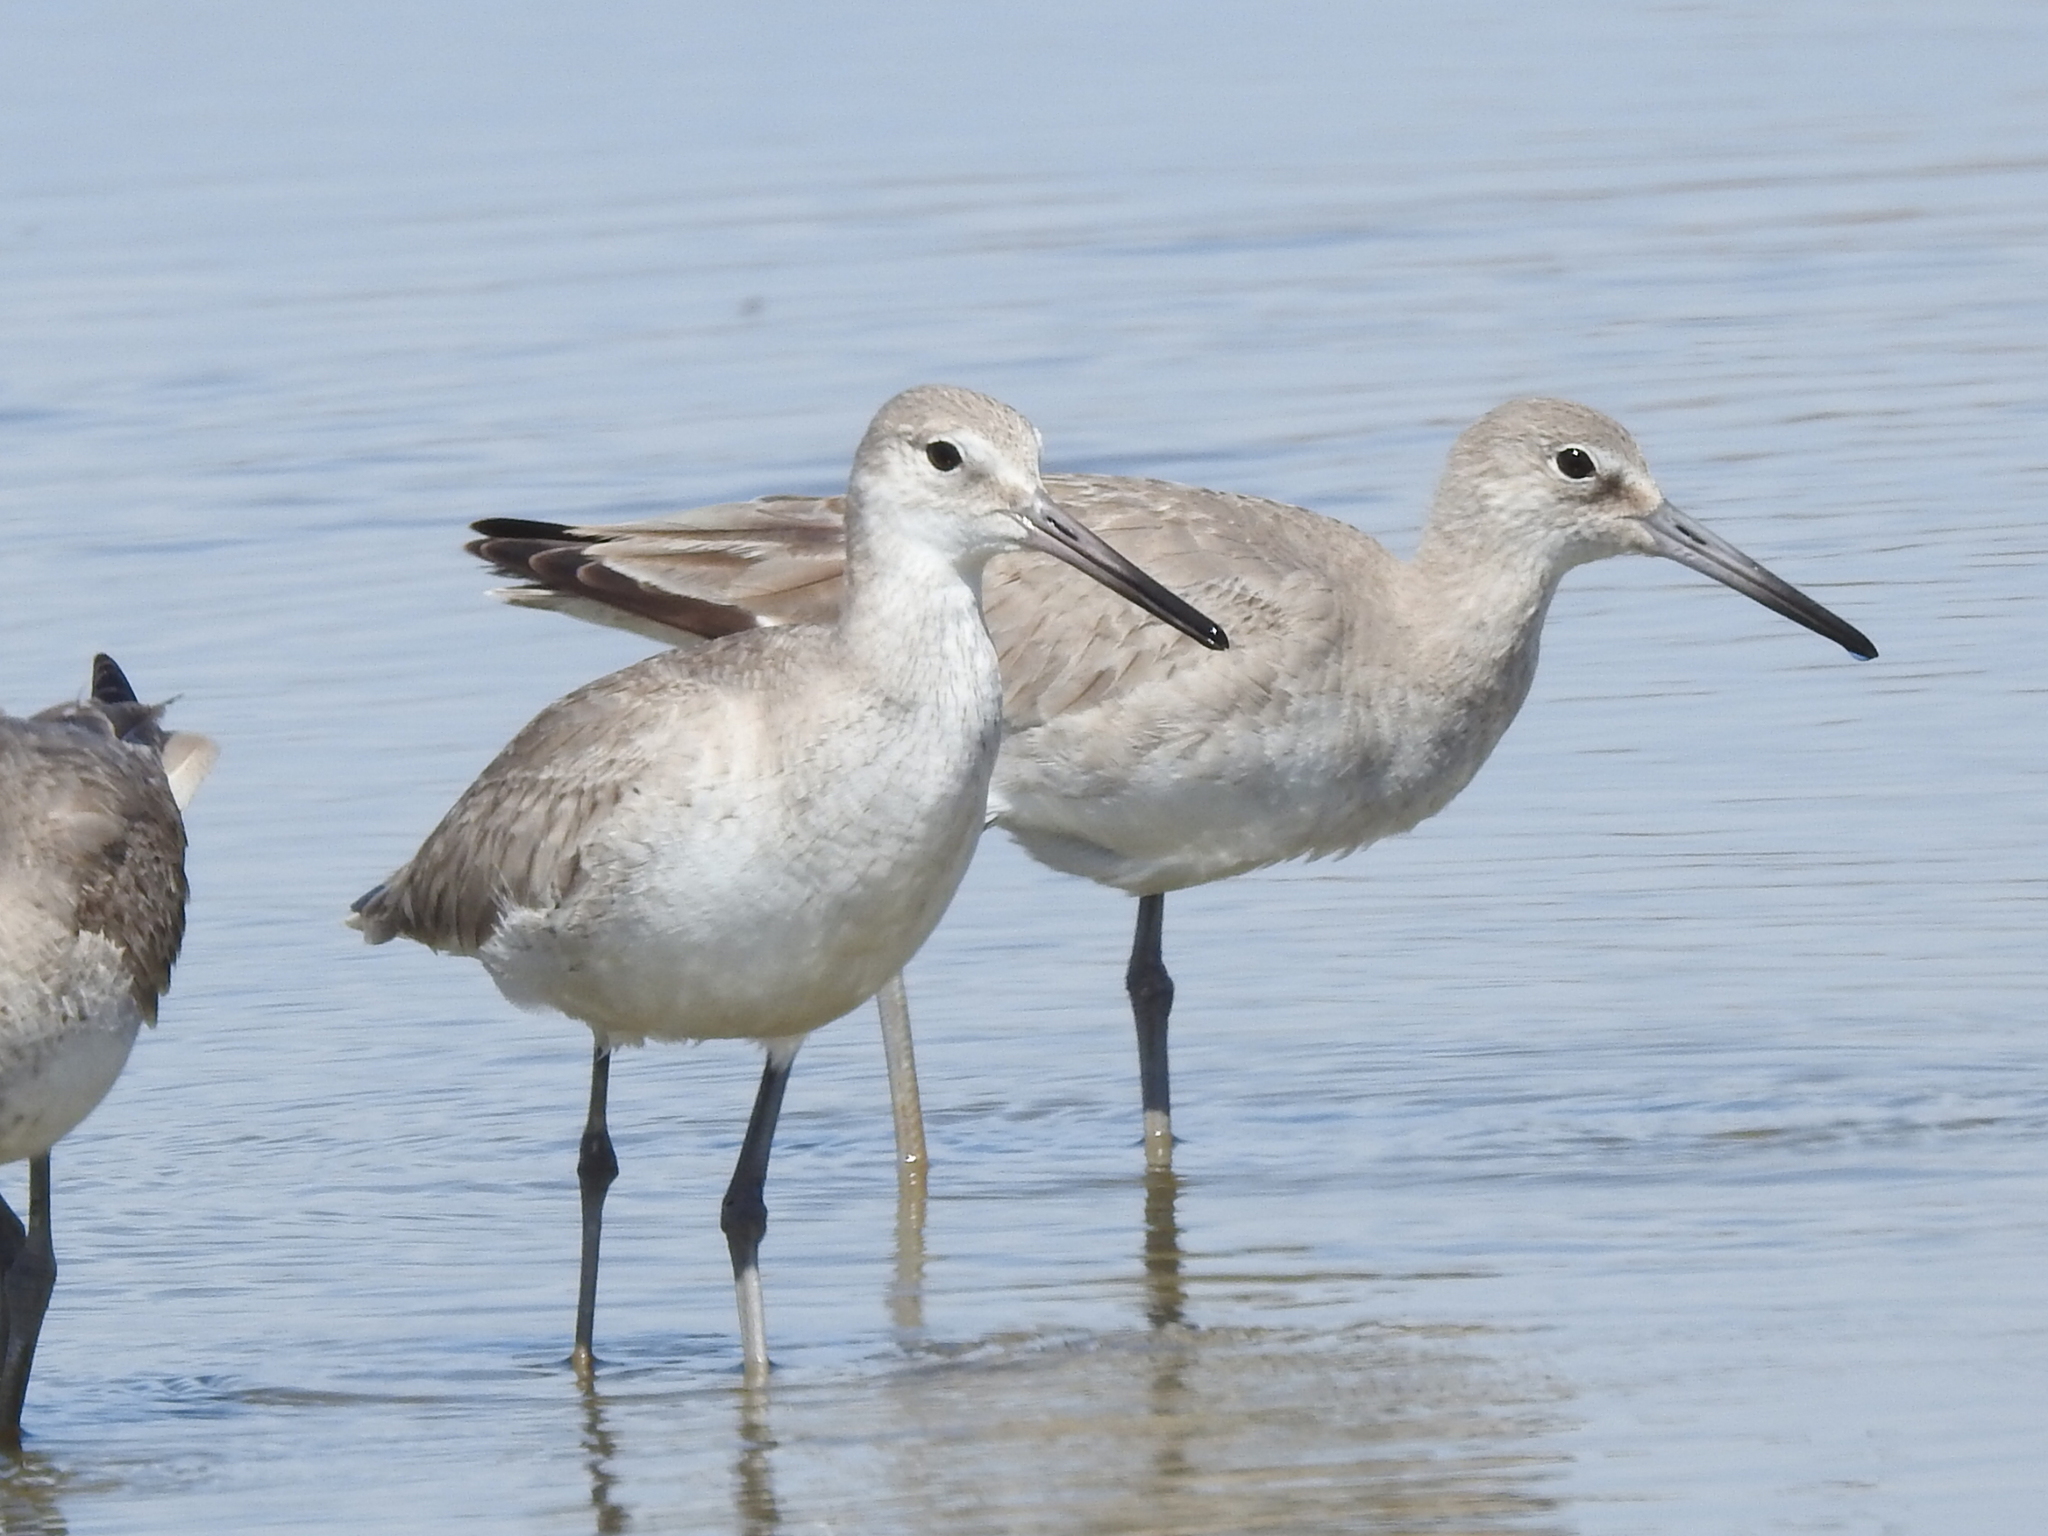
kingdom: Animalia
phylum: Chordata
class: Aves
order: Charadriiformes
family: Scolopacidae
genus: Tringa
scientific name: Tringa semipalmata
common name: Willet
